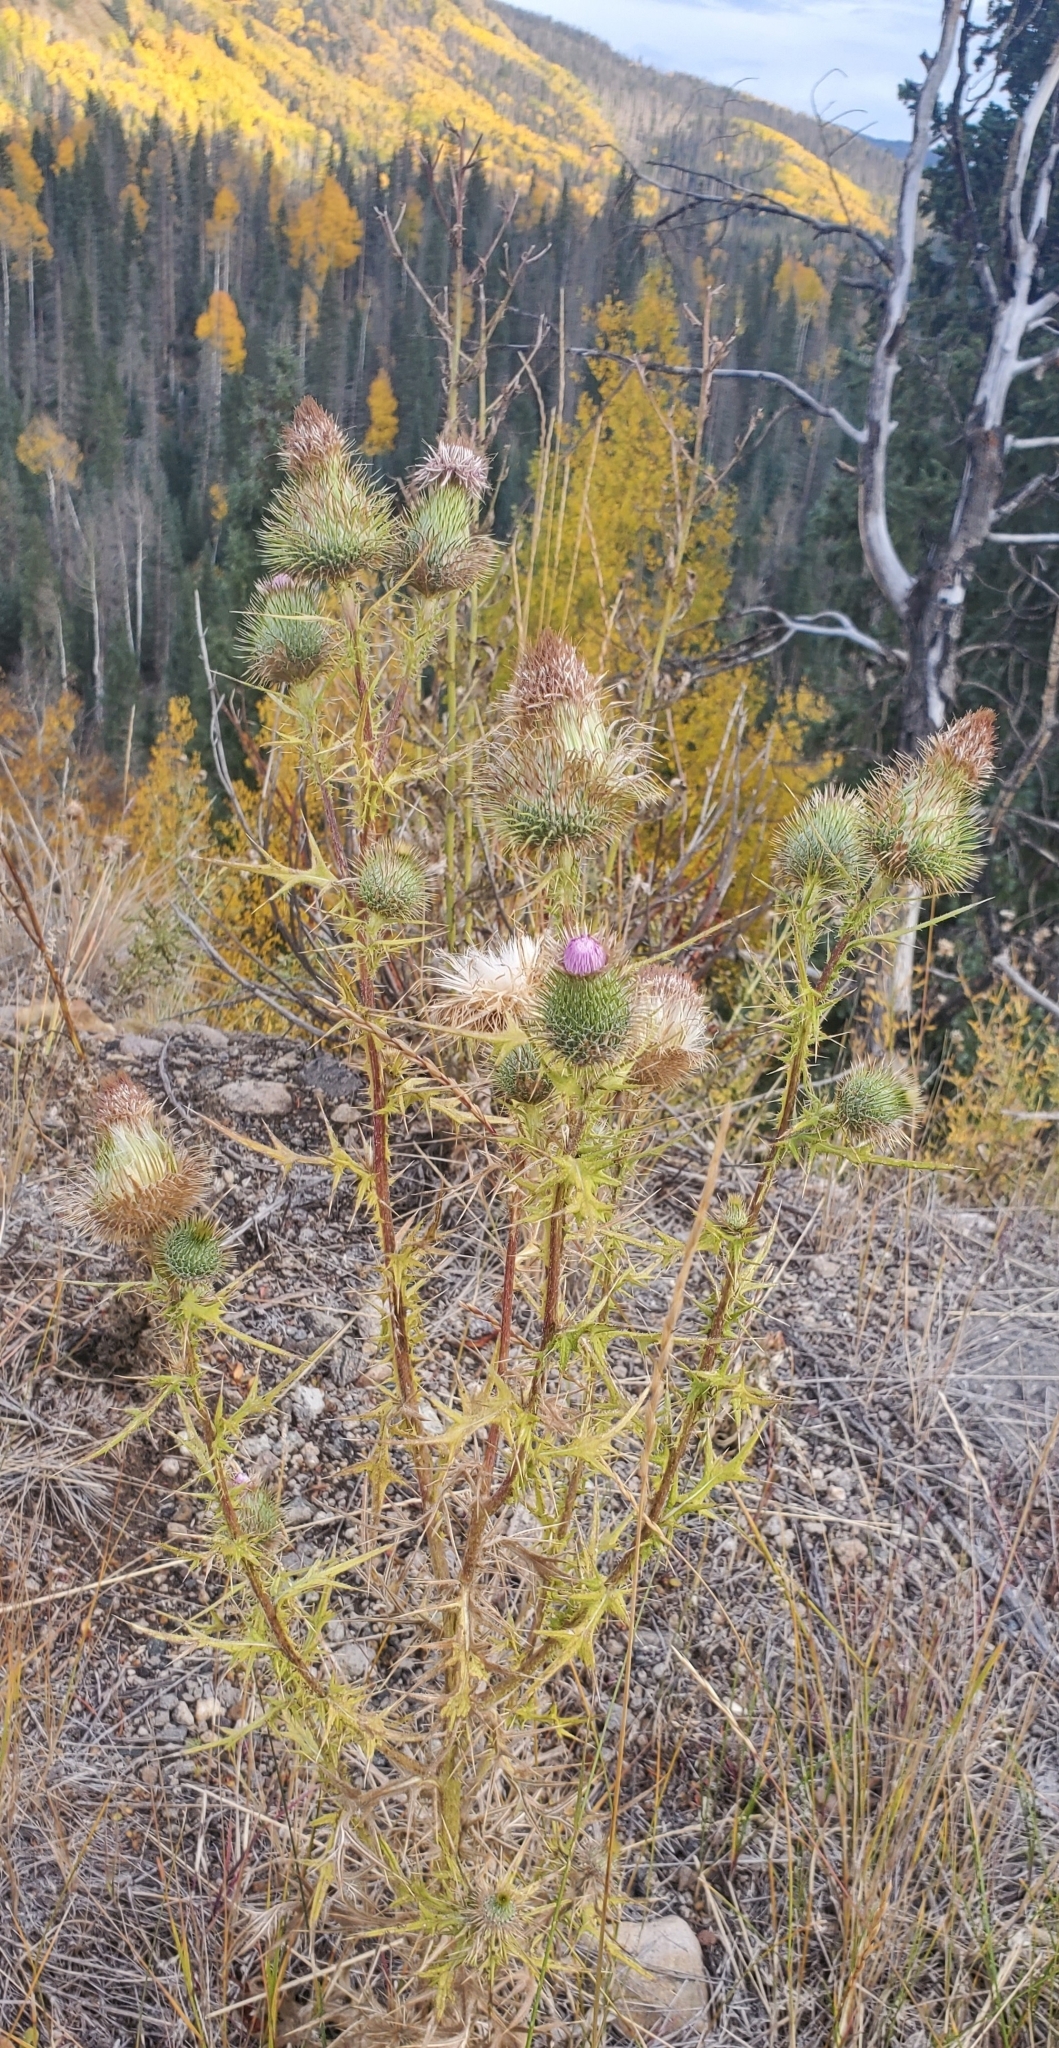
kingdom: Plantae
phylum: Tracheophyta
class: Magnoliopsida
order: Asterales
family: Asteraceae
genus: Cirsium
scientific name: Cirsium vulgare
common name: Bull thistle
